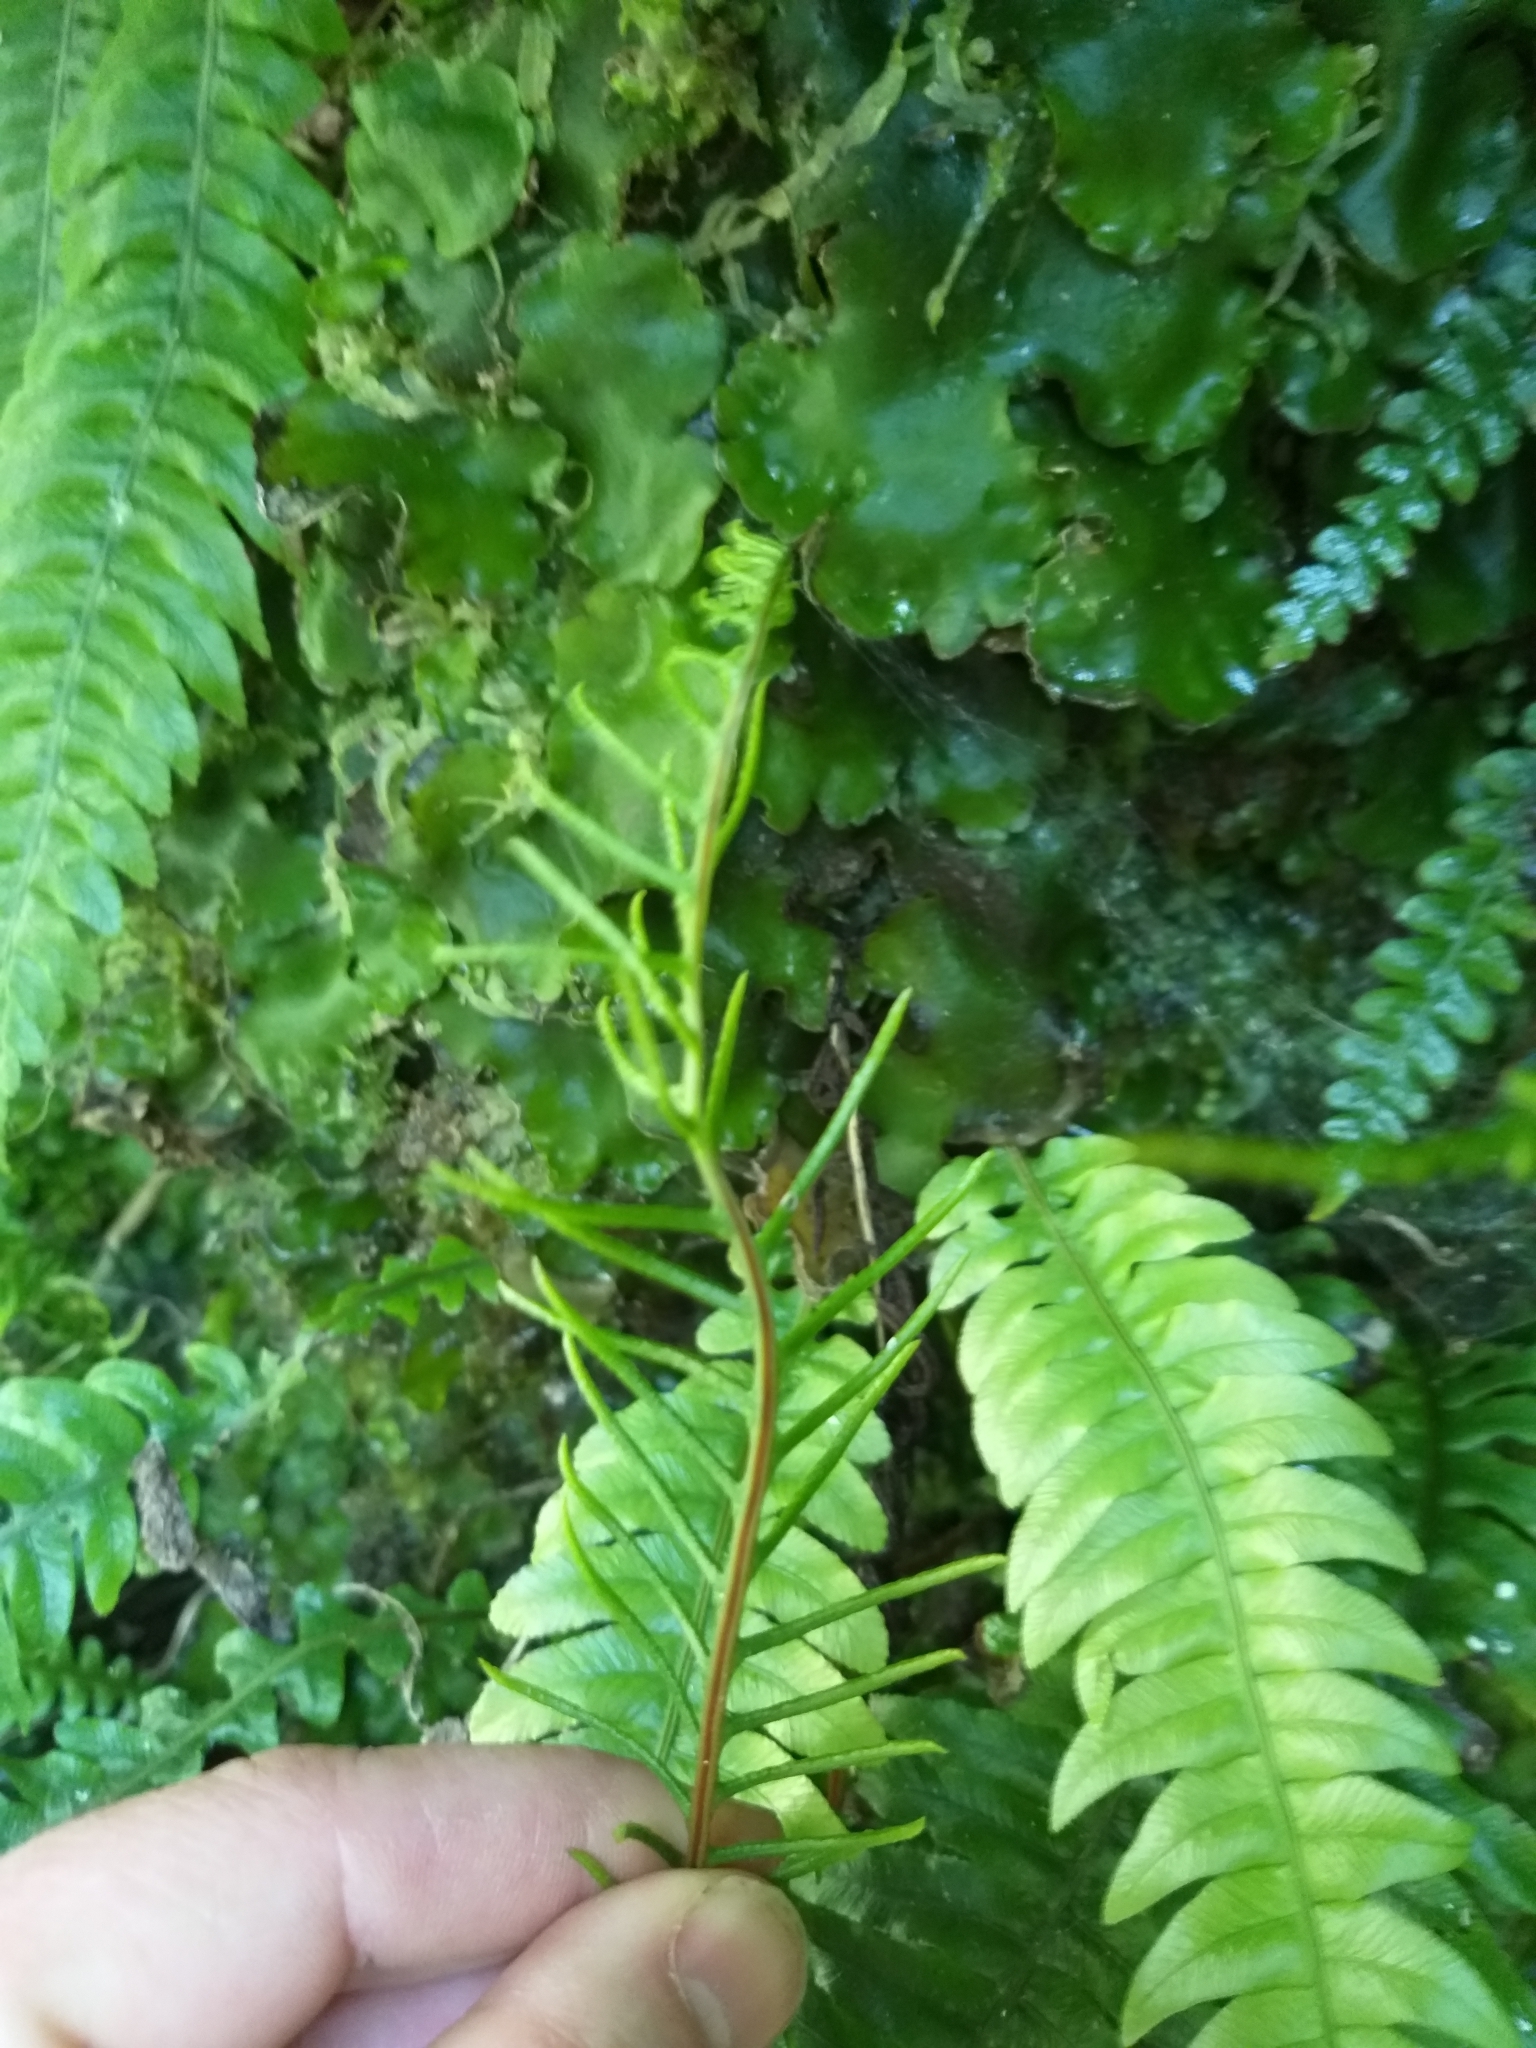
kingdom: Plantae
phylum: Tracheophyta
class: Polypodiopsida
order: Polypodiales
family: Blechnaceae
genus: Austroblechnum
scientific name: Austroblechnum lanceolatum
